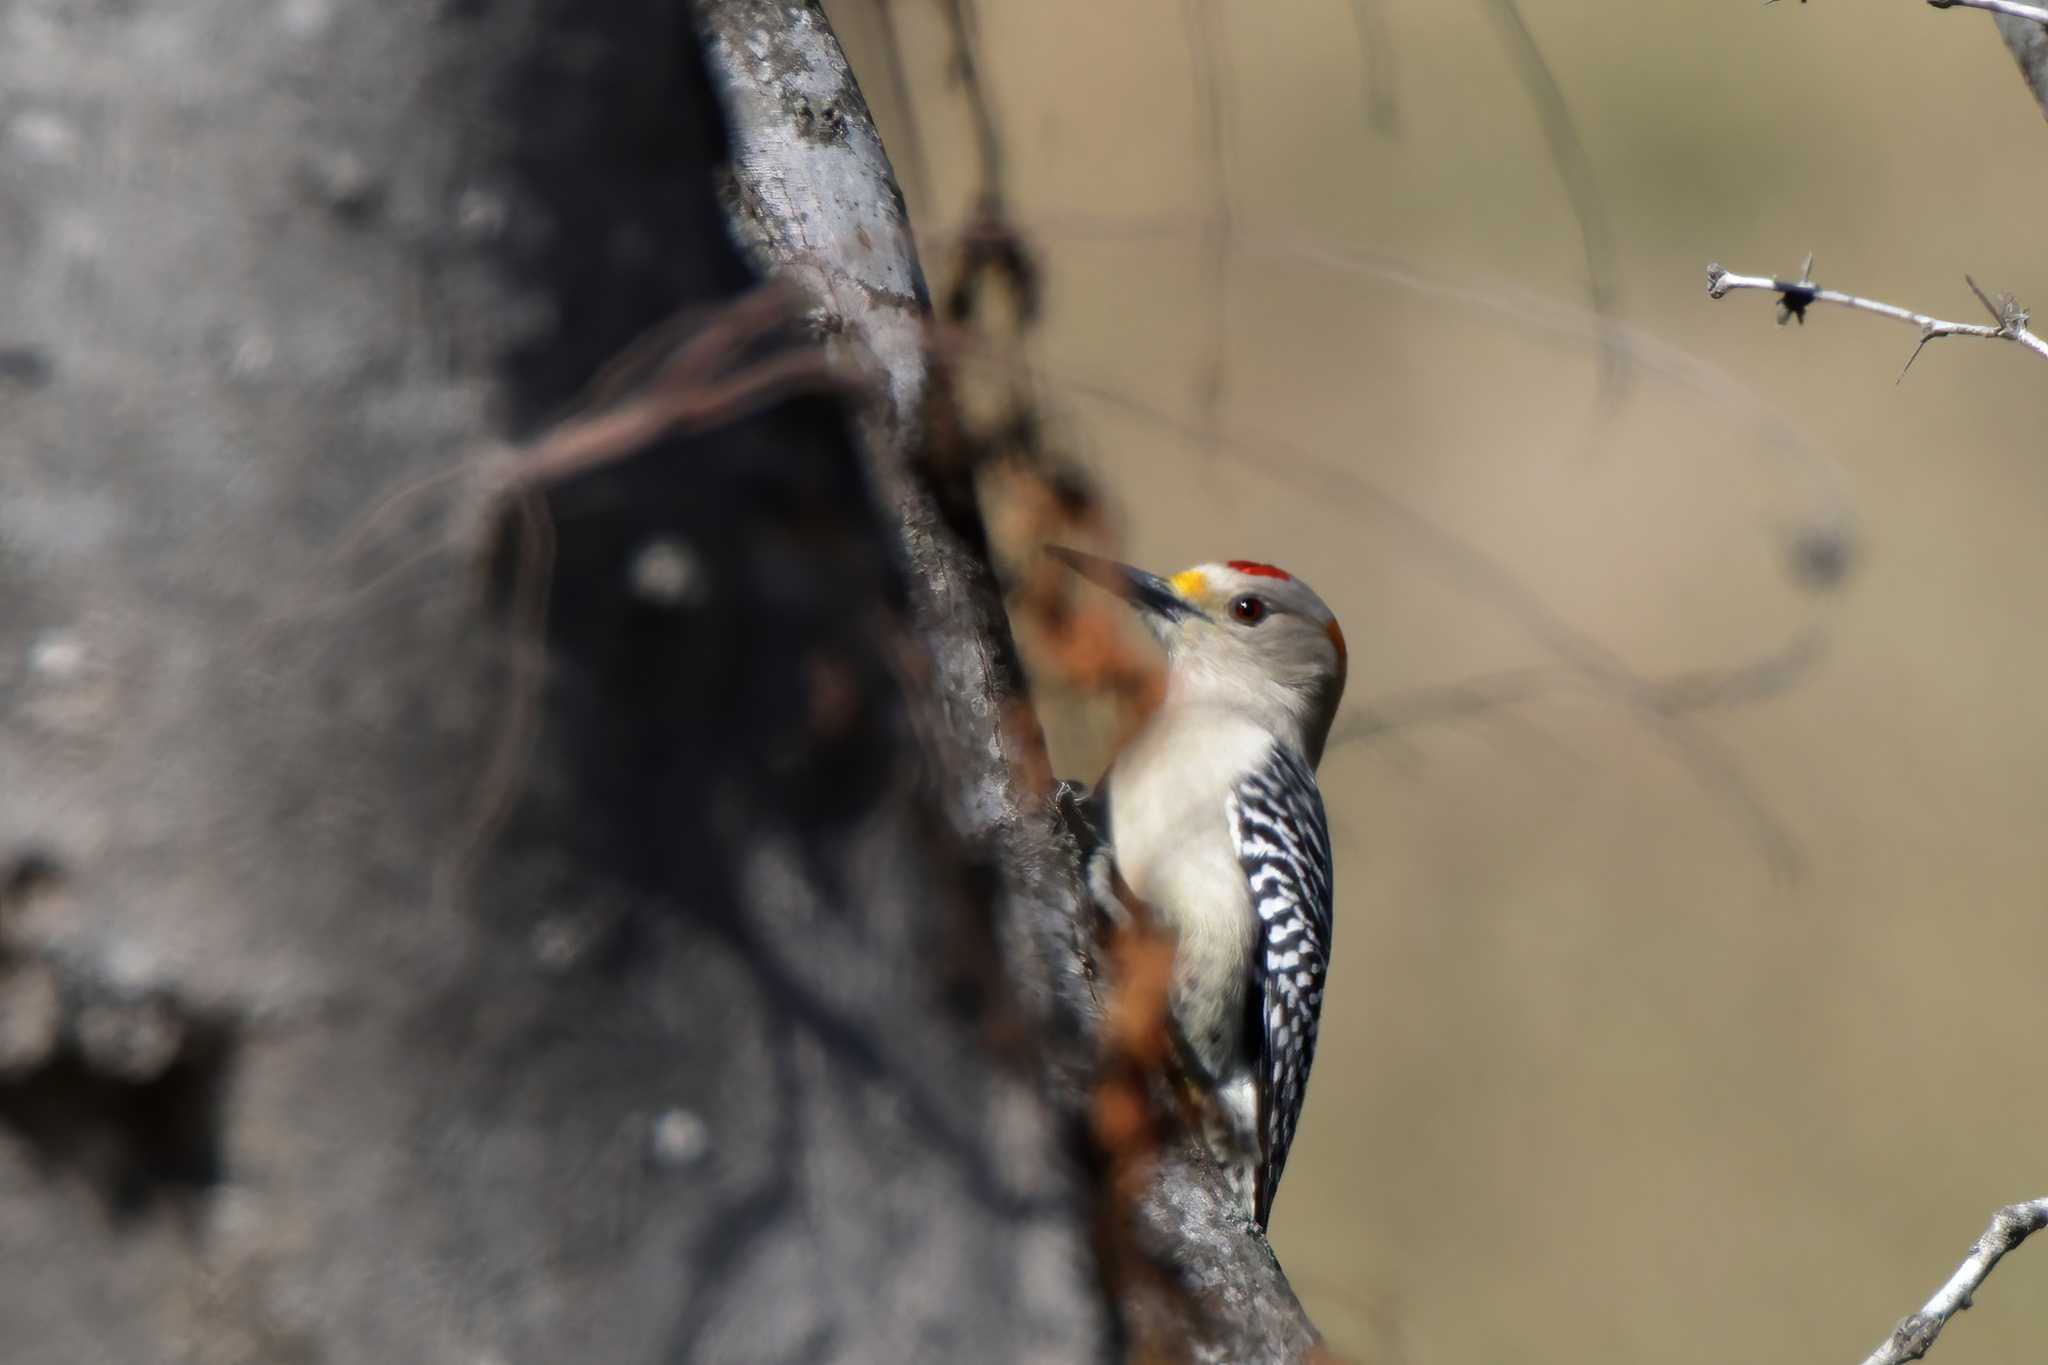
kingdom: Animalia
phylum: Chordata
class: Aves
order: Piciformes
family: Picidae
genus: Melanerpes
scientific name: Melanerpes aurifrons
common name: Golden-fronted woodpecker
